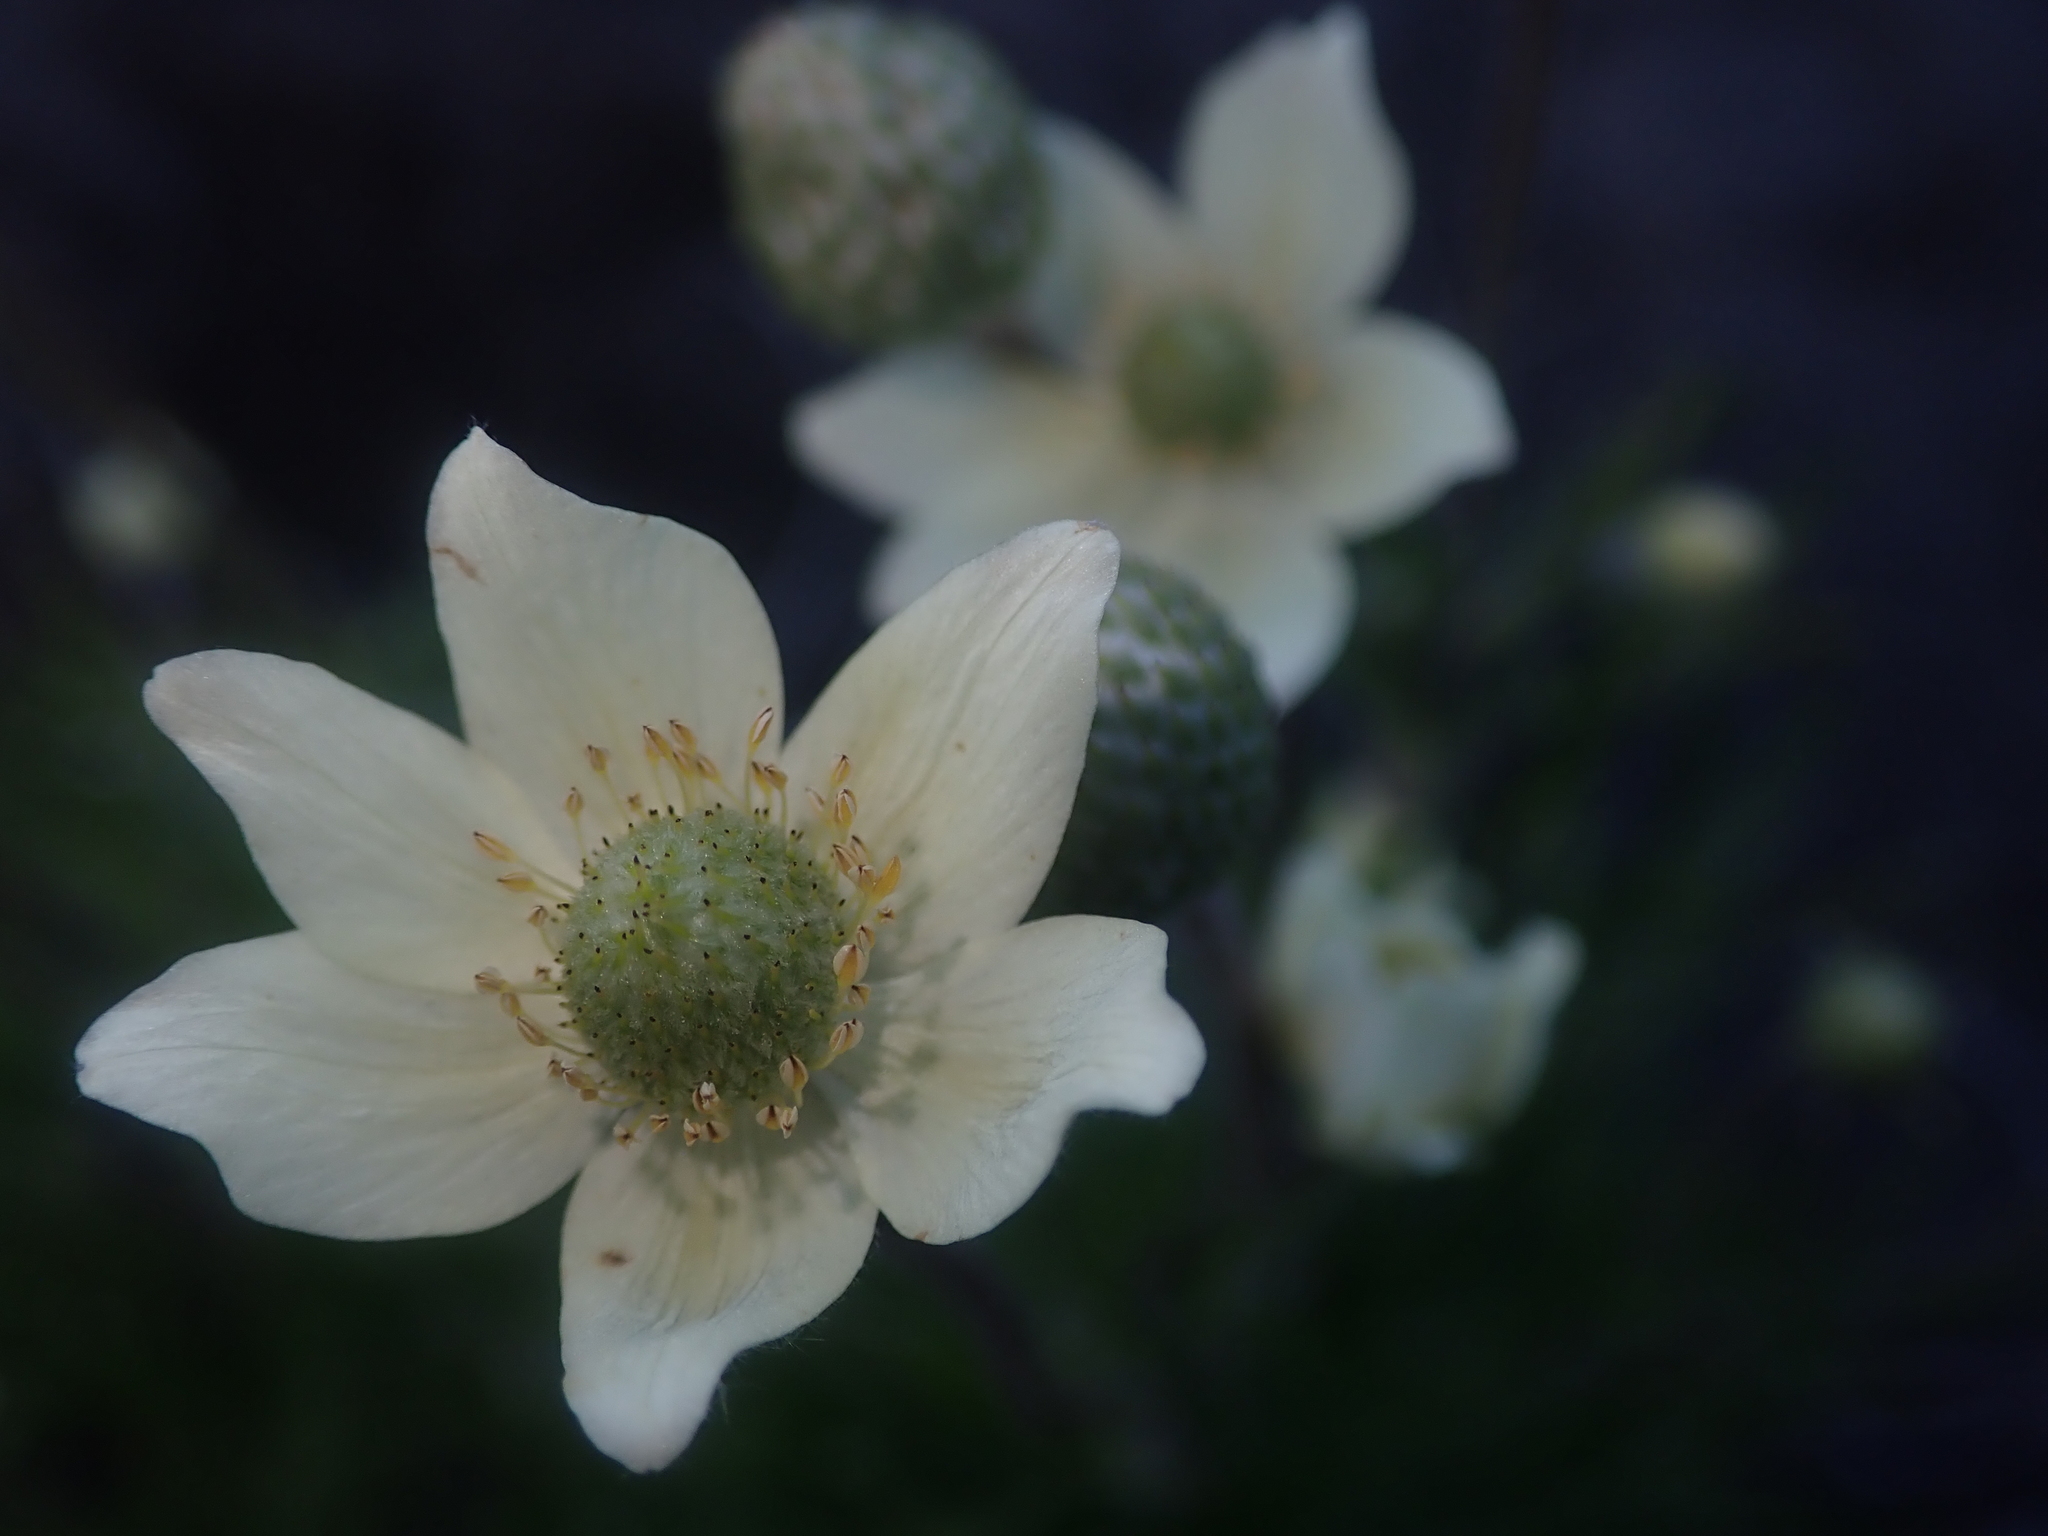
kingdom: Plantae
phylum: Tracheophyta
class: Magnoliopsida
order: Ranunculales
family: Ranunculaceae
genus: Anemone
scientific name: Anemone multifida
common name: Bird's-foot anemone
